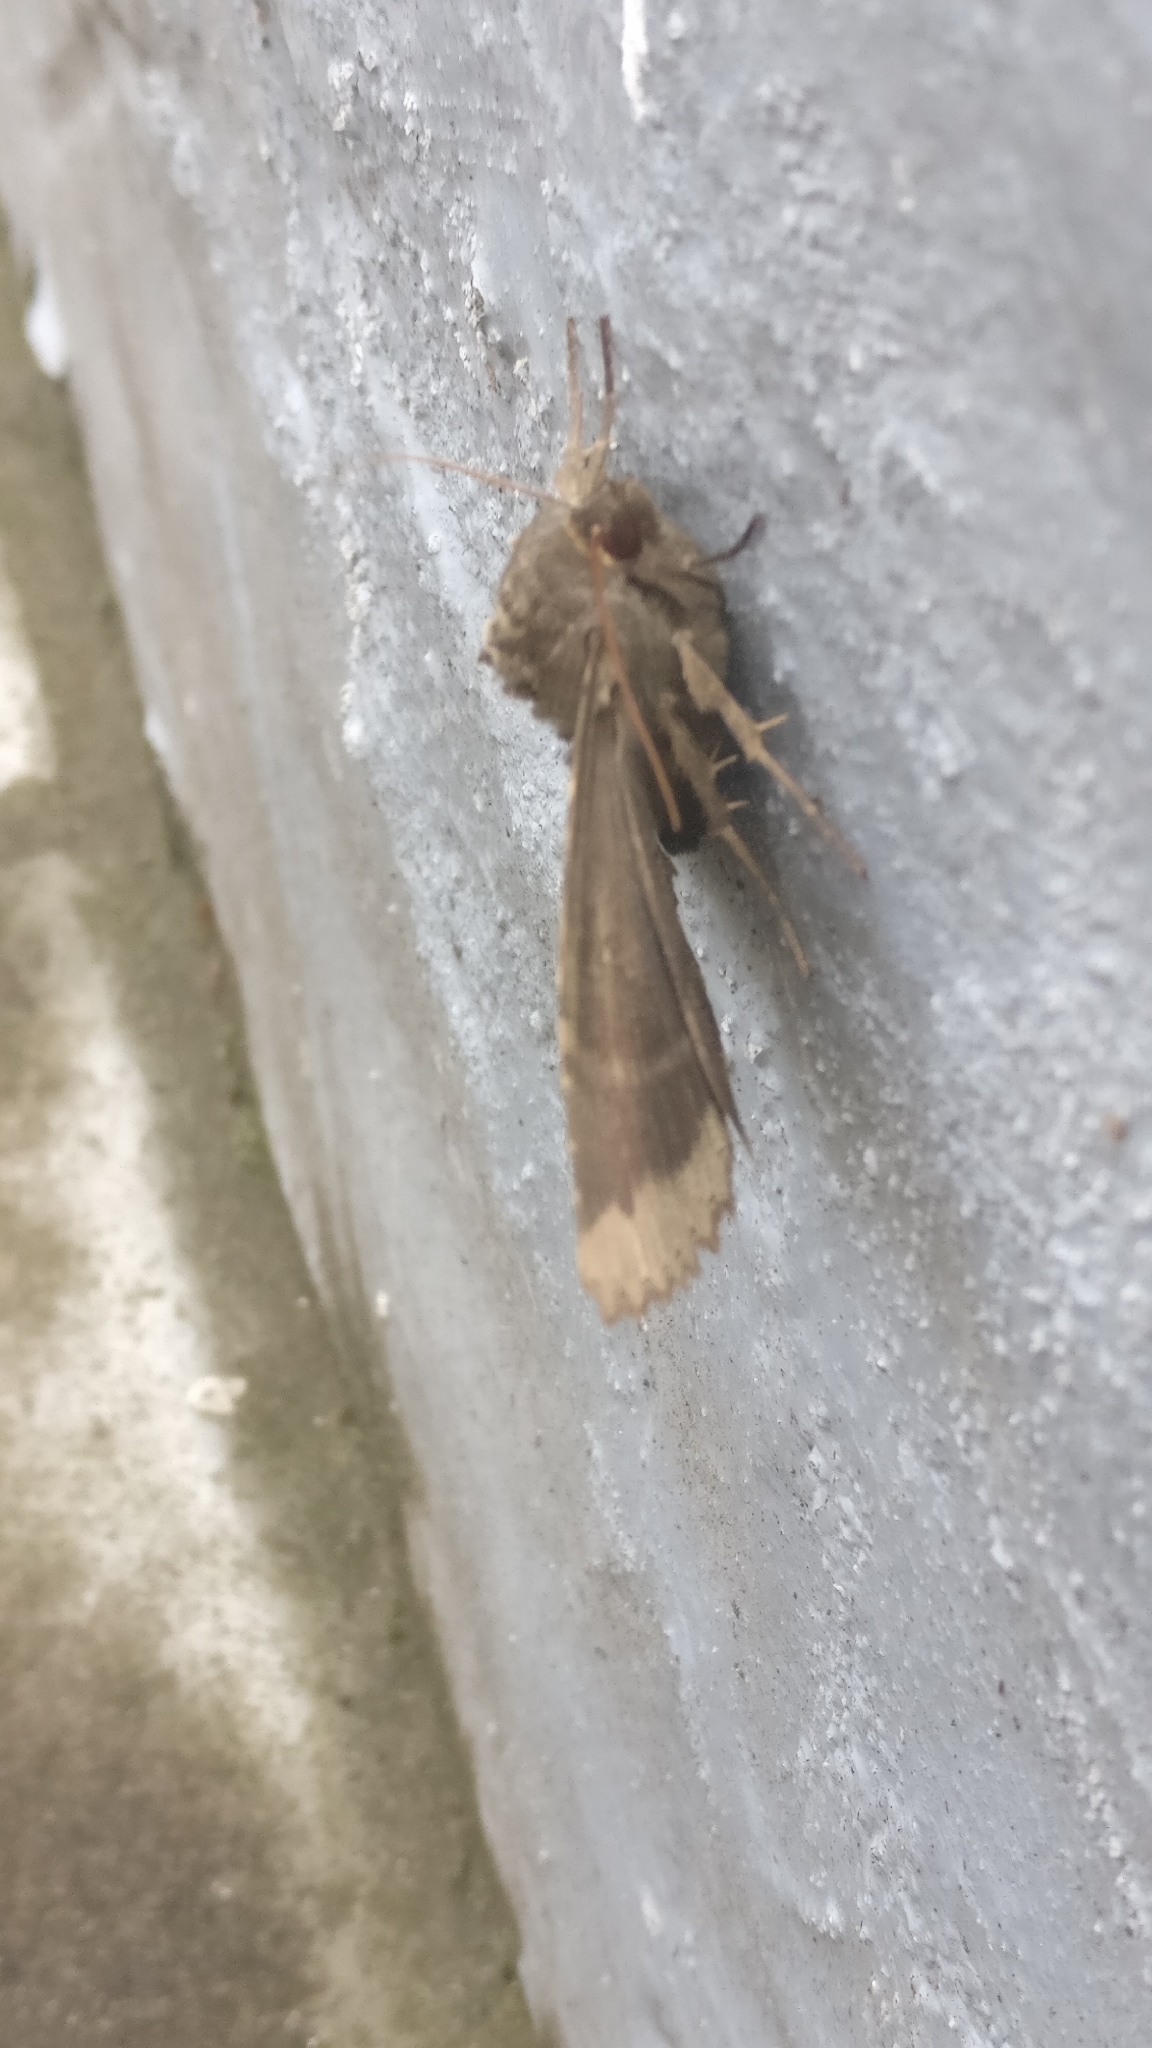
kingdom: Animalia
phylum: Arthropoda
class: Insecta
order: Lepidoptera
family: Noctuidae
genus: Mormo
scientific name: Mormo maura
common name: Old lady
